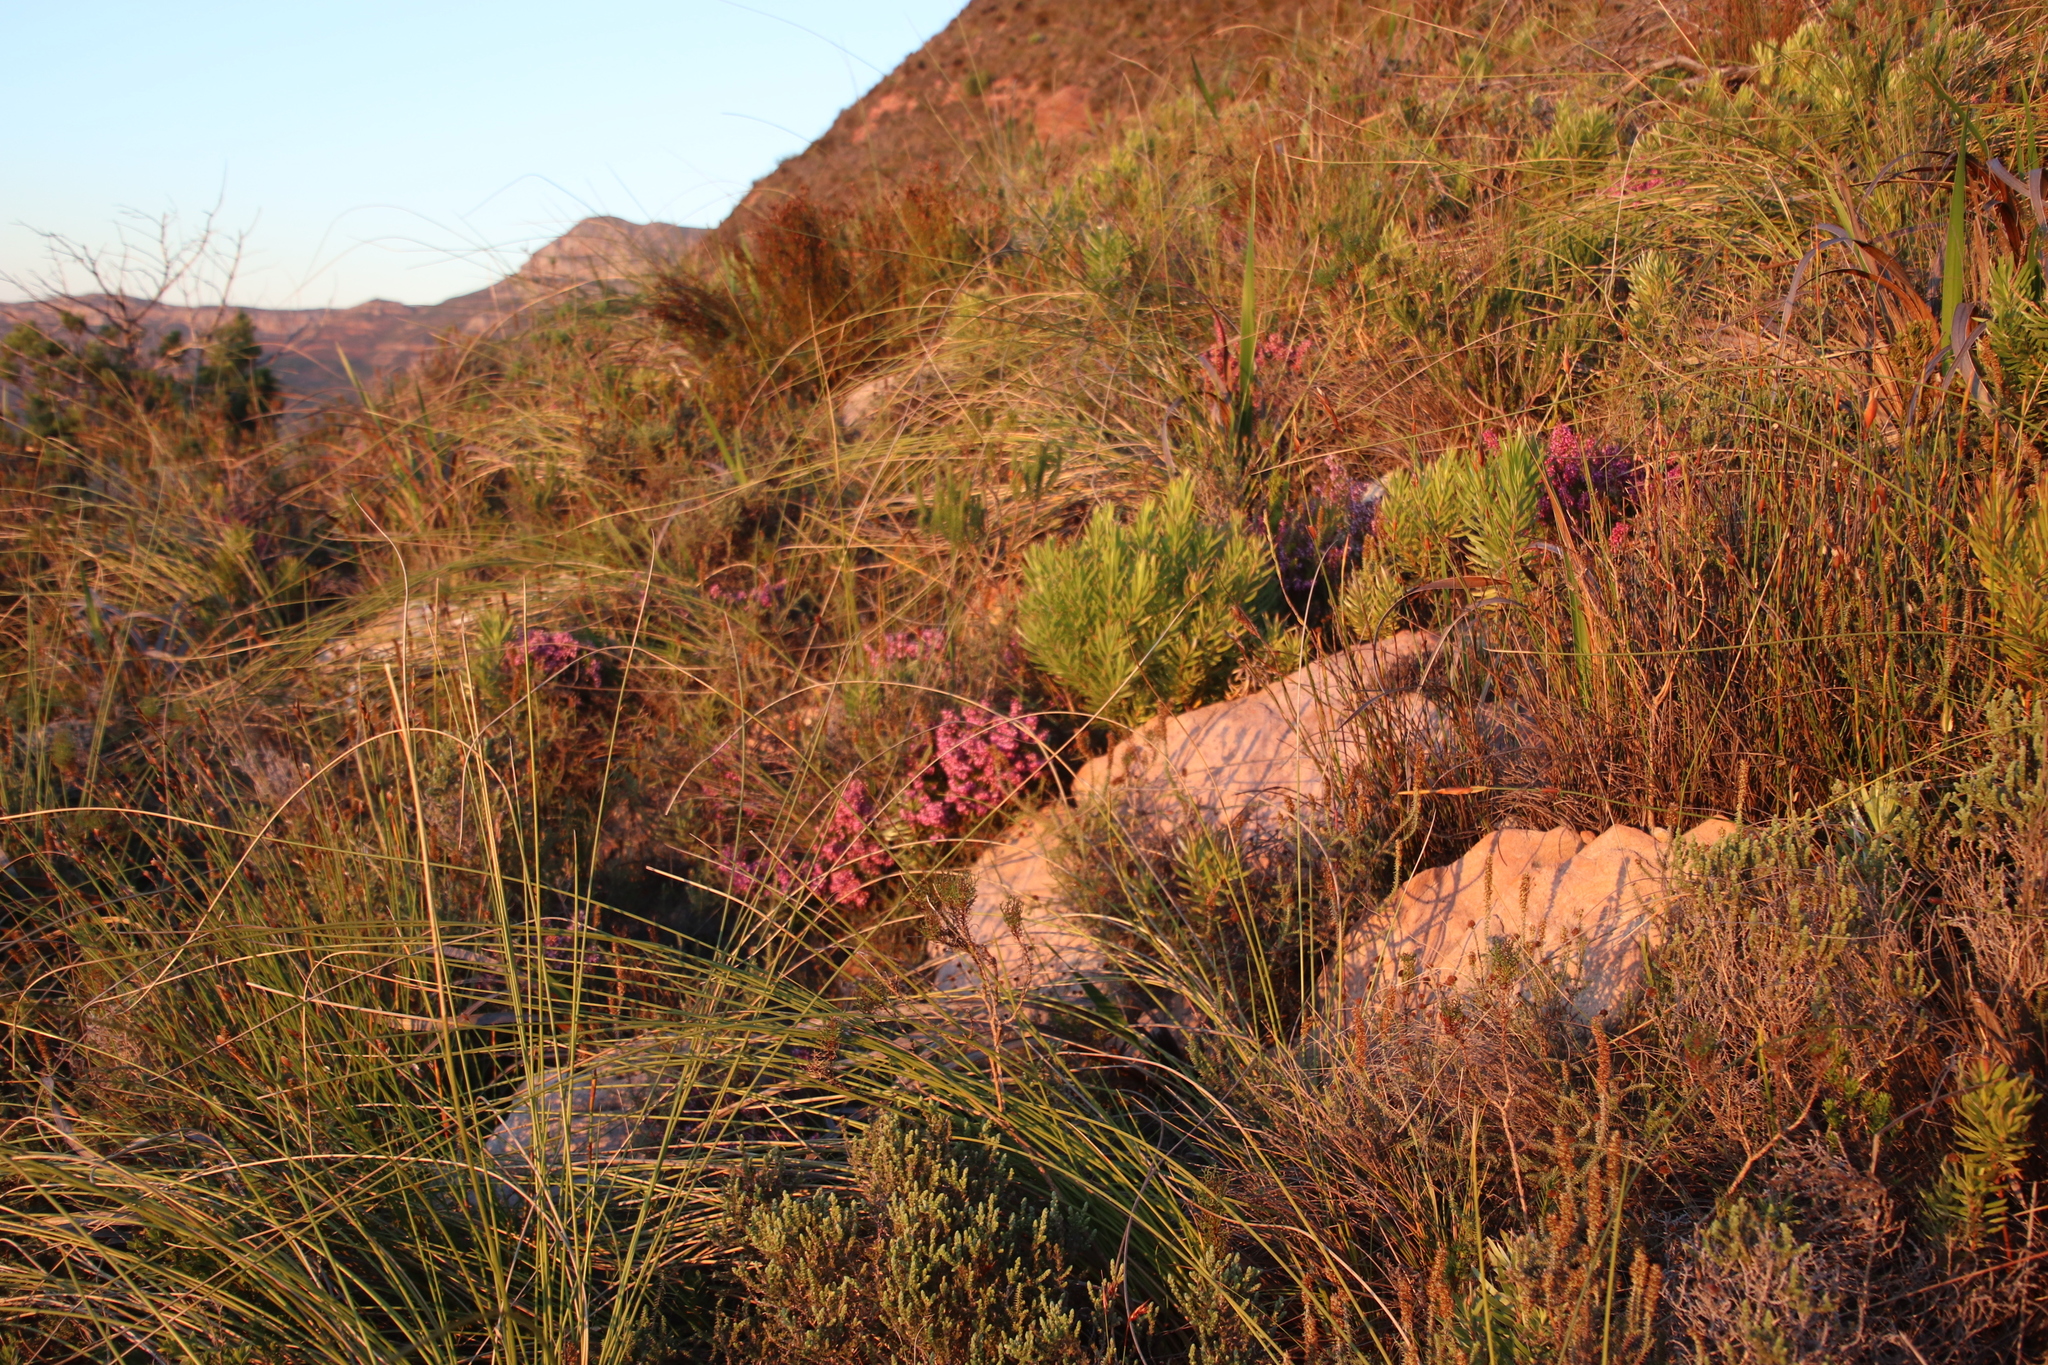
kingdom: Plantae
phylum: Tracheophyta
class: Magnoliopsida
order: Ericales
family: Ericaceae
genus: Erica
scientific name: Erica nudiflora
